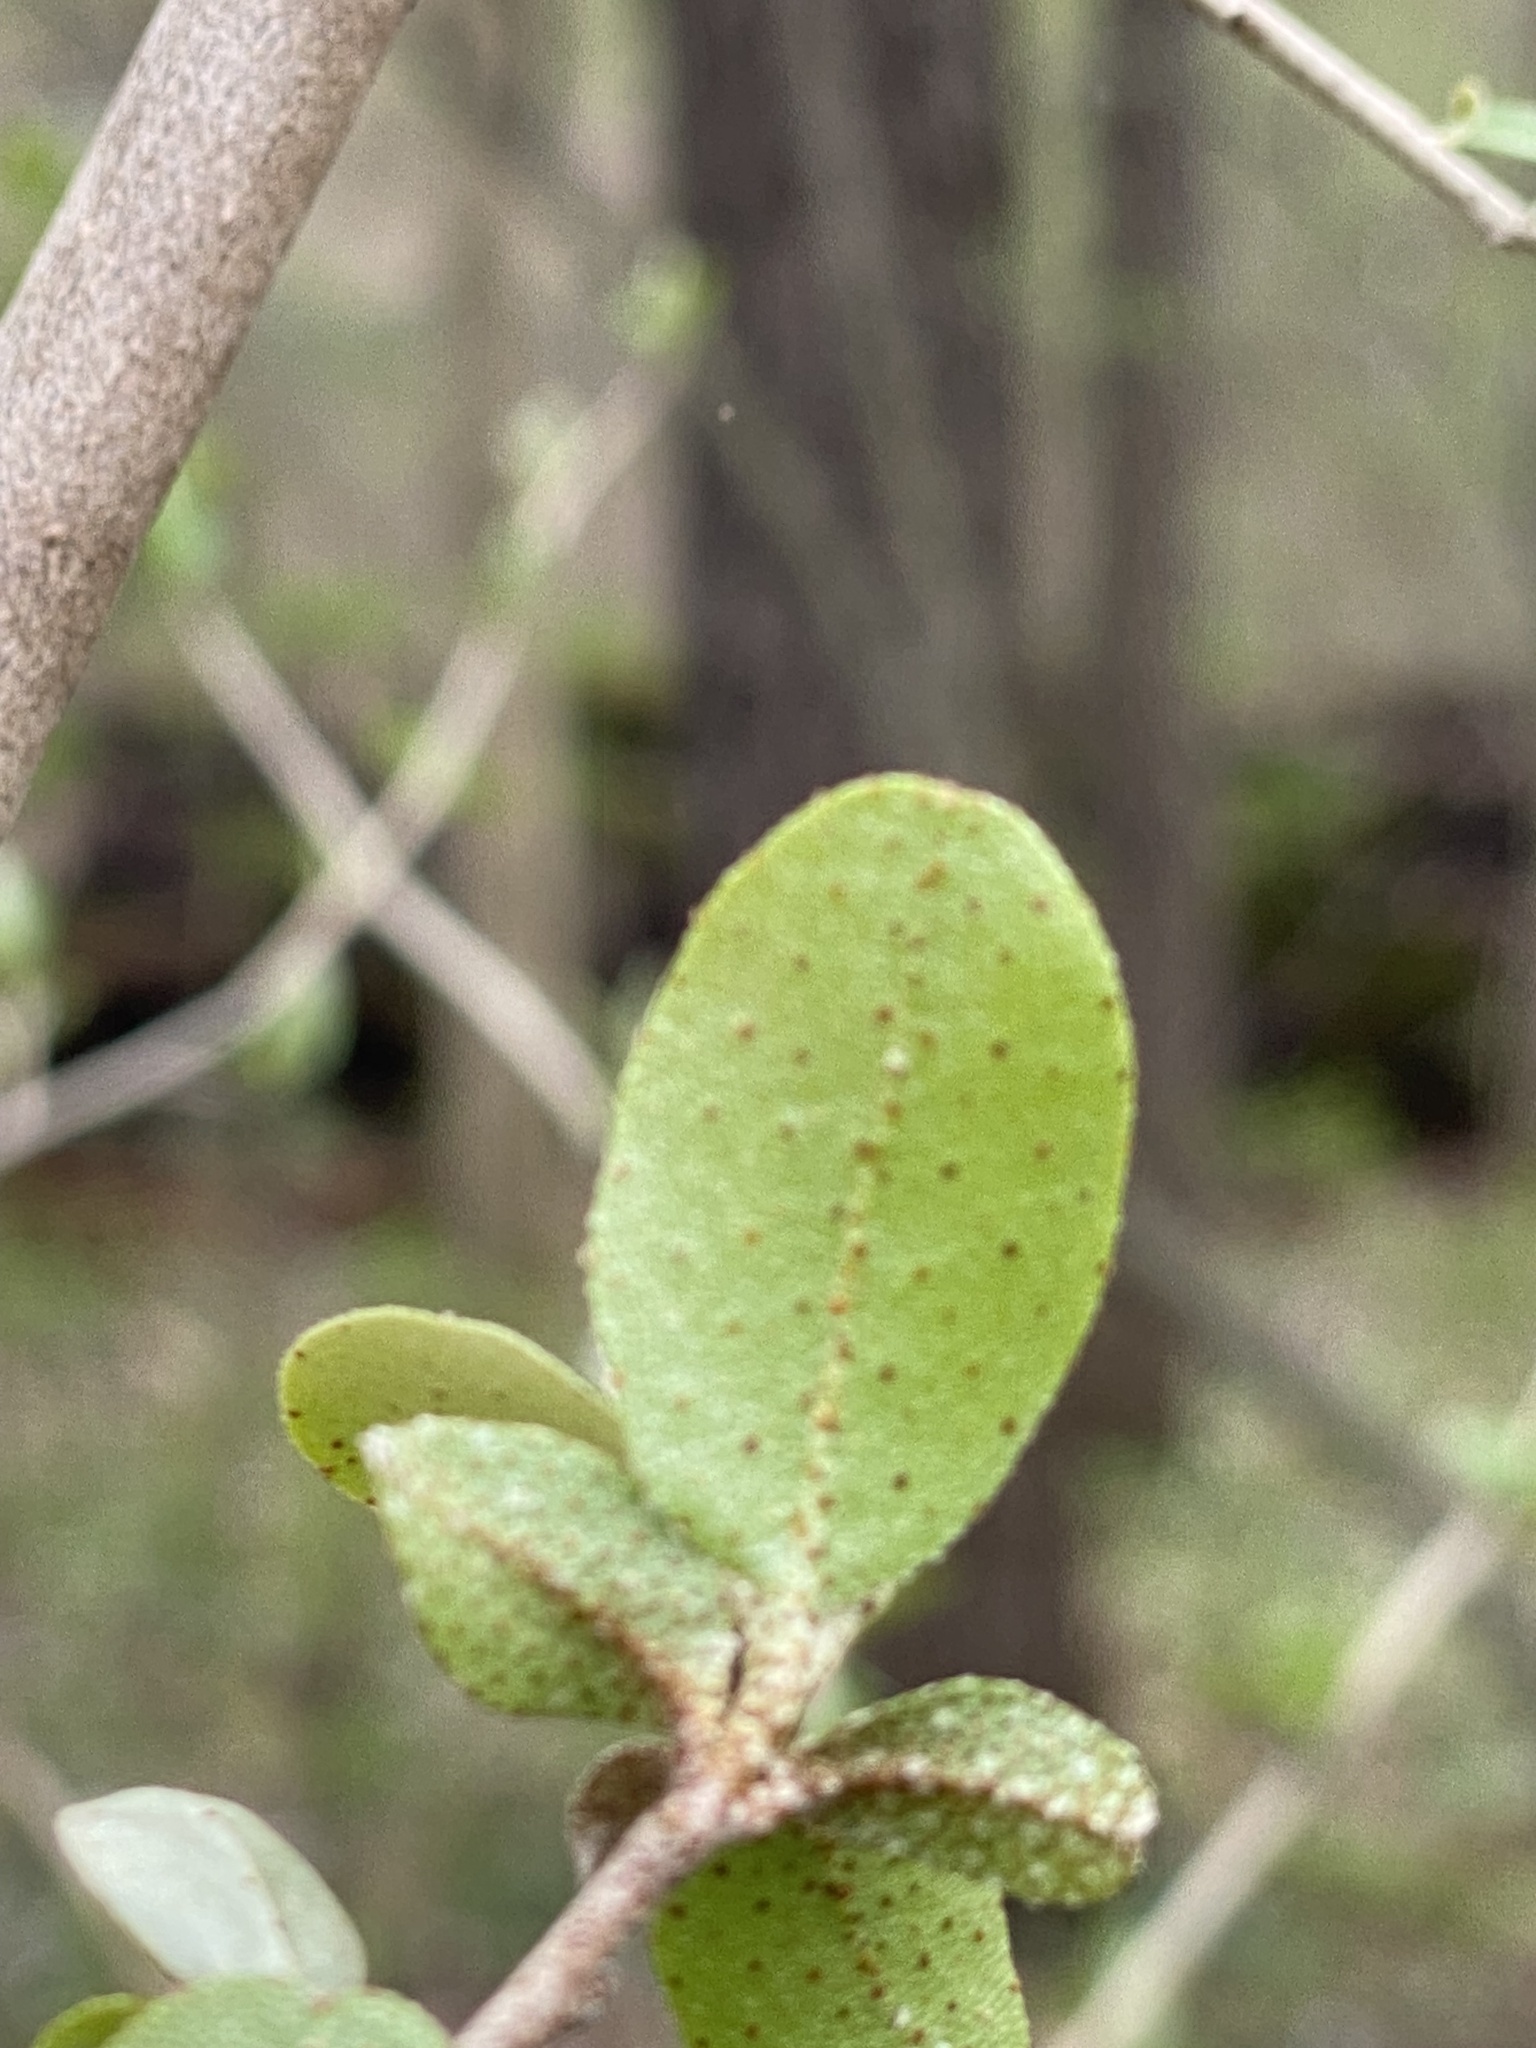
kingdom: Plantae
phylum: Tracheophyta
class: Magnoliopsida
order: Rosales
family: Elaeagnaceae
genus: Elaeagnus
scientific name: Elaeagnus umbellata
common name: Autumn olive
